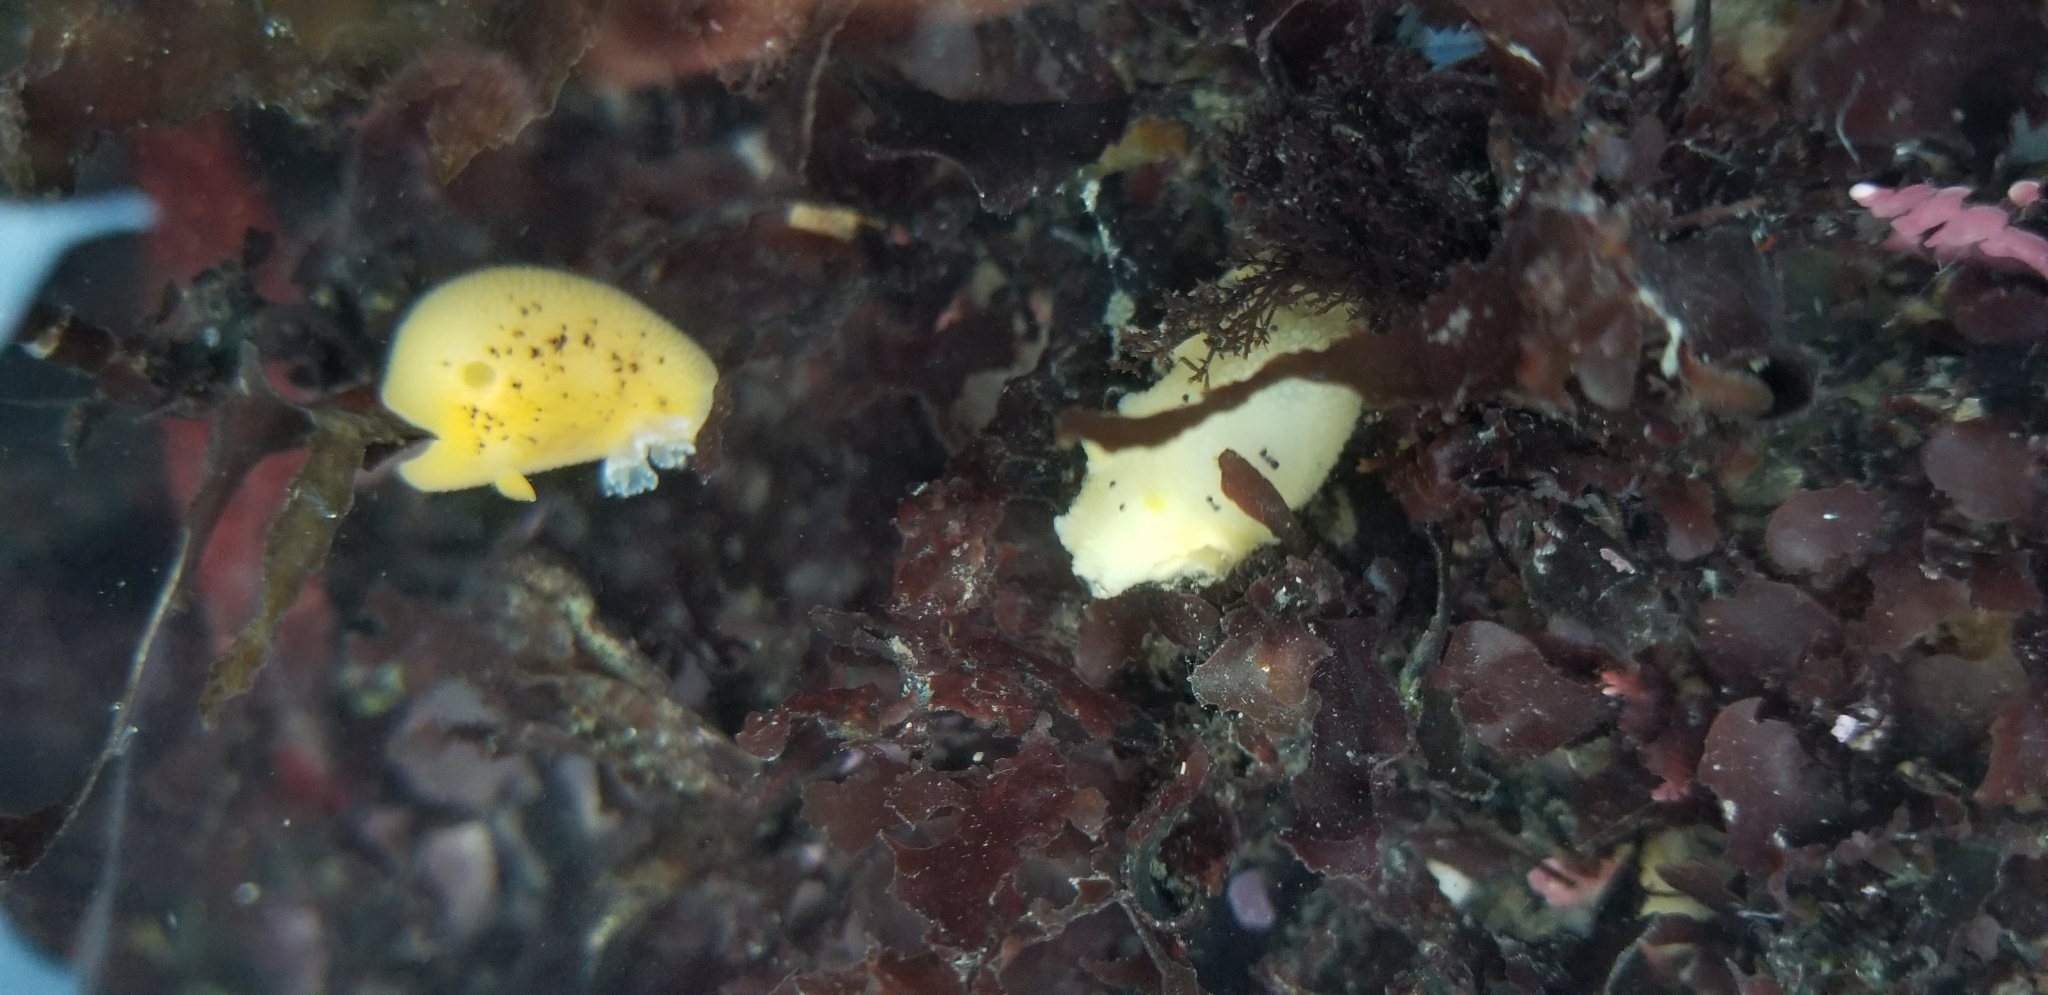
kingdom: Animalia
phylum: Mollusca
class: Gastropoda
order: Nudibranchia
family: Discodorididae
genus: Peltodoris
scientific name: Peltodoris nobilis
